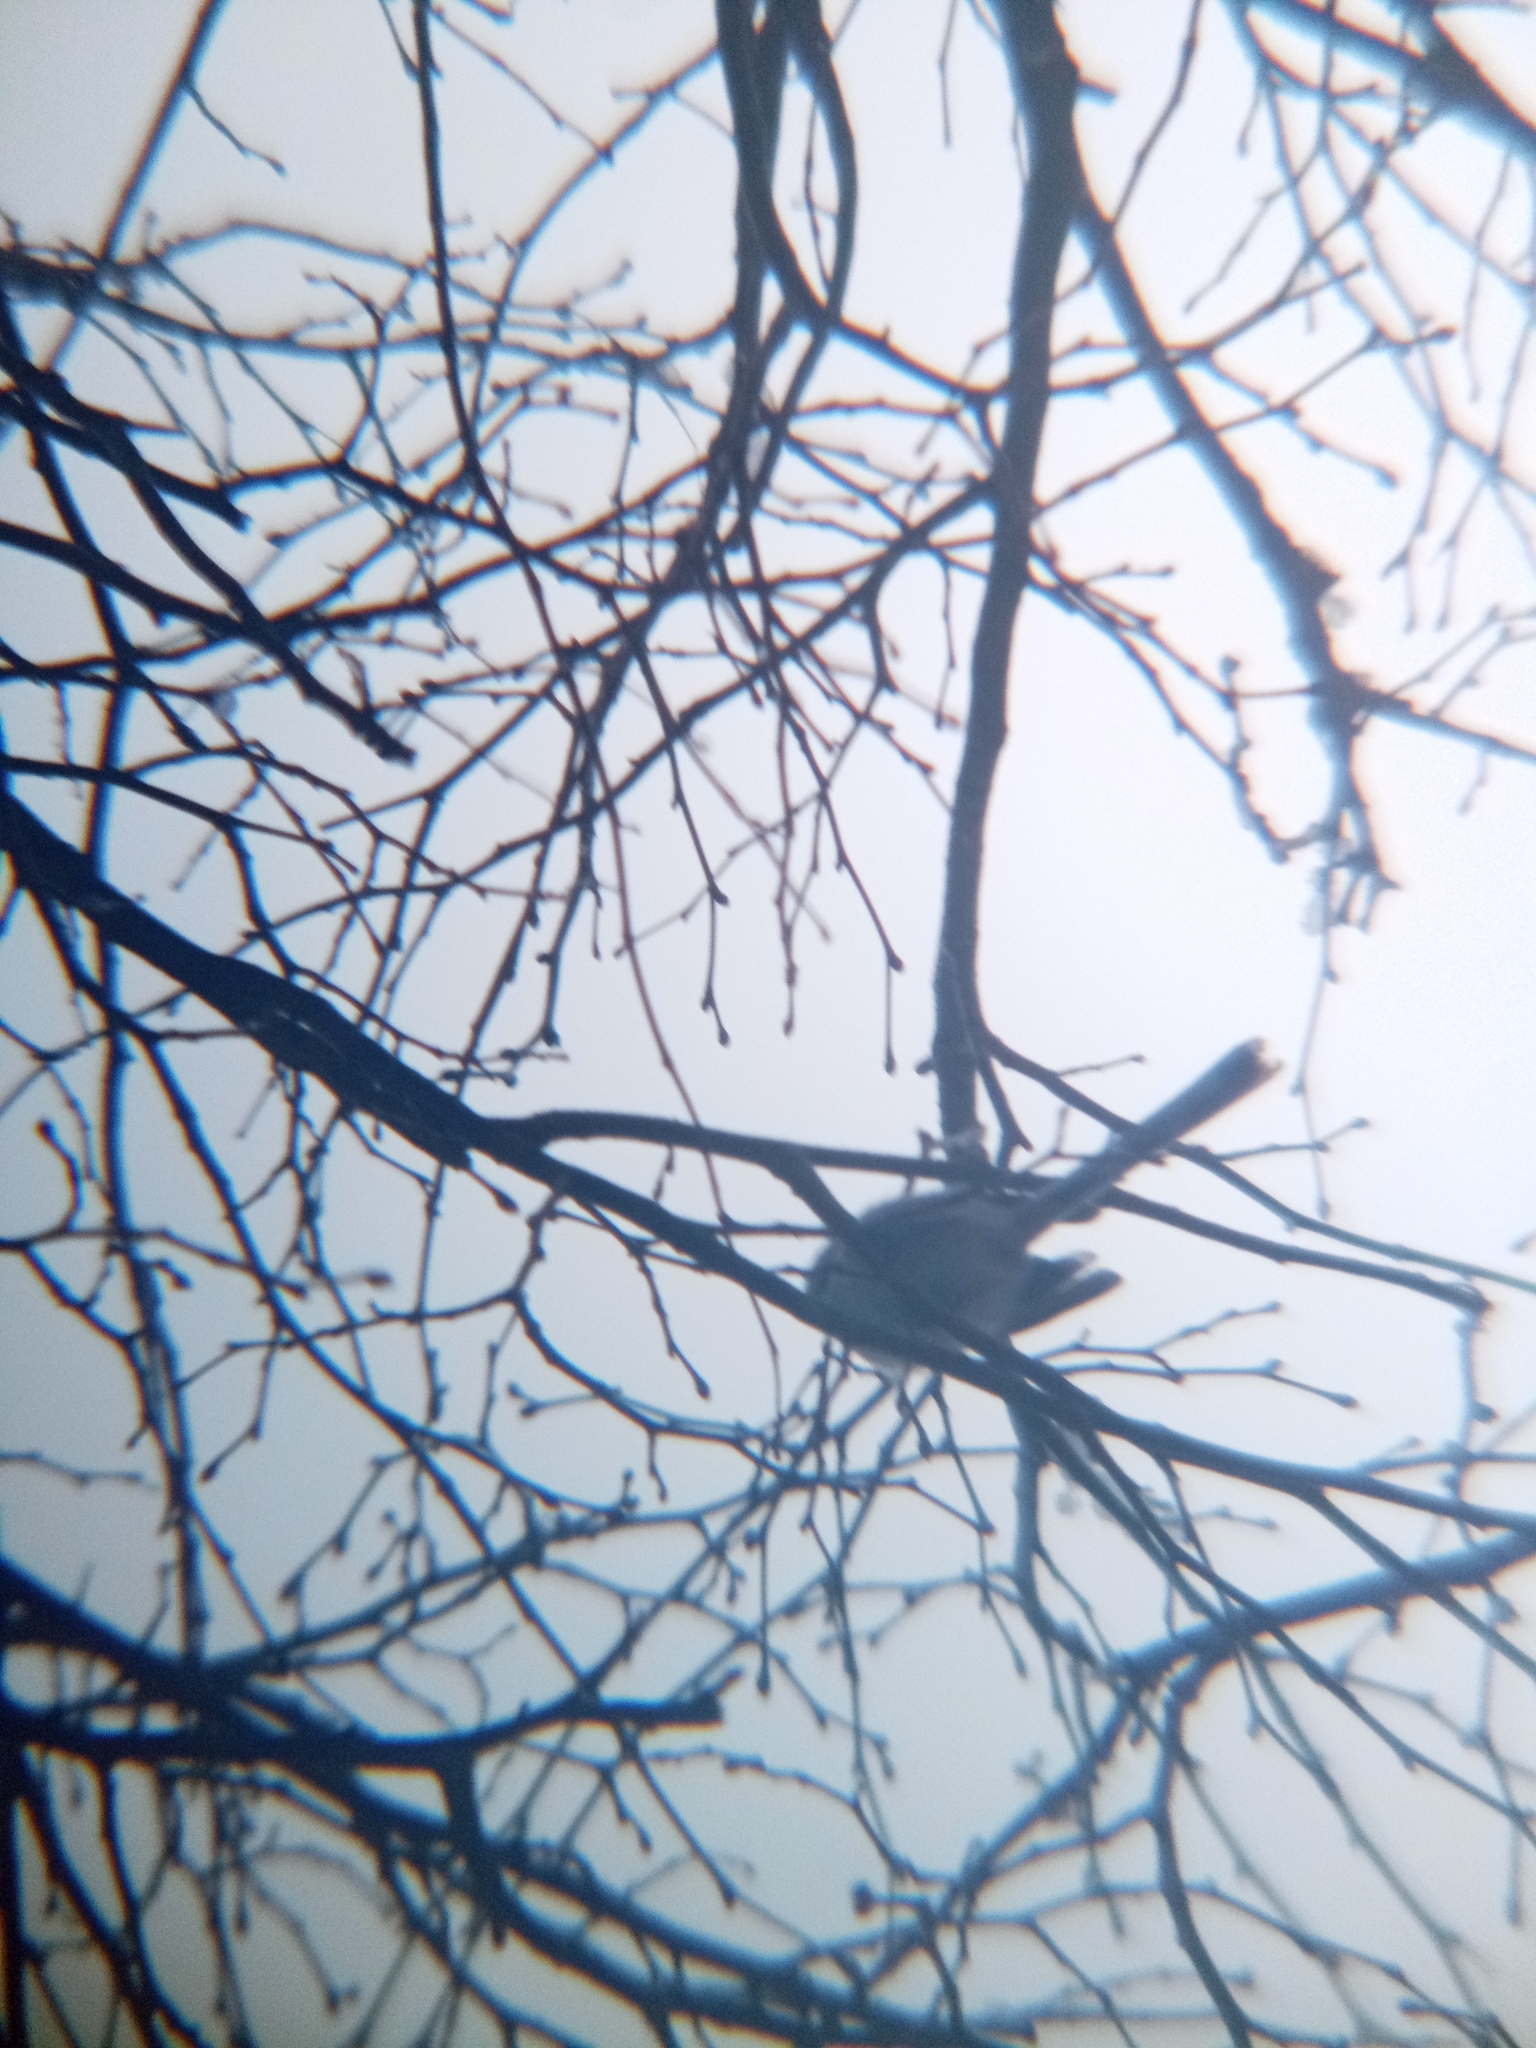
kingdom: Animalia
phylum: Chordata
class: Aves
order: Passeriformes
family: Aegithalidae
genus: Aegithalos
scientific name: Aegithalos caudatus
